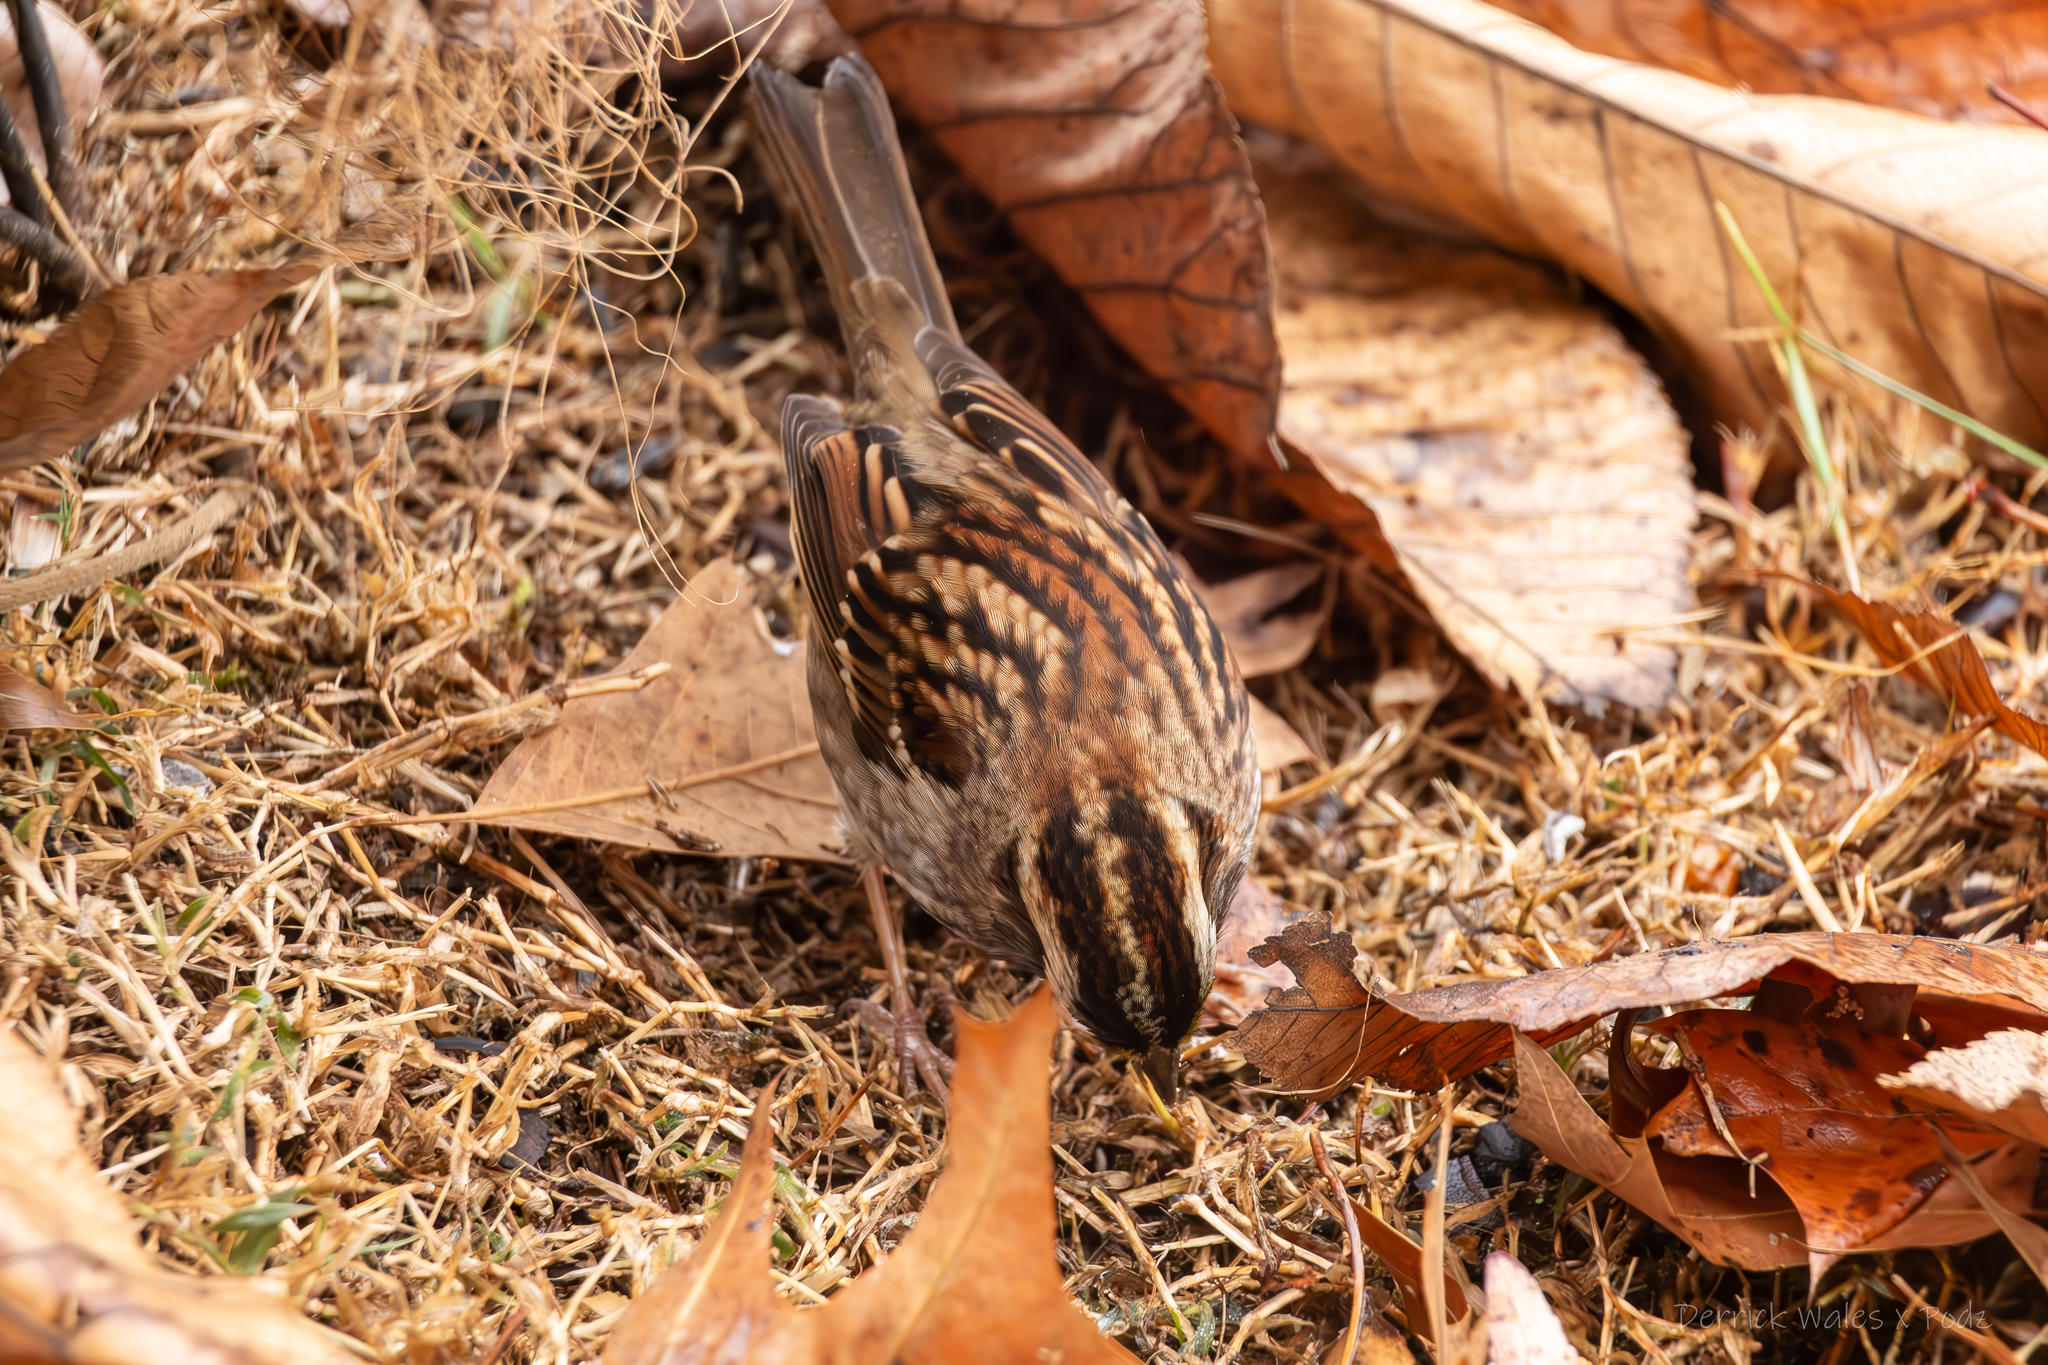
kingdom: Animalia
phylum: Chordata
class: Aves
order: Passeriformes
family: Passerellidae
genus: Zonotrichia
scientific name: Zonotrichia albicollis
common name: White-throated sparrow
